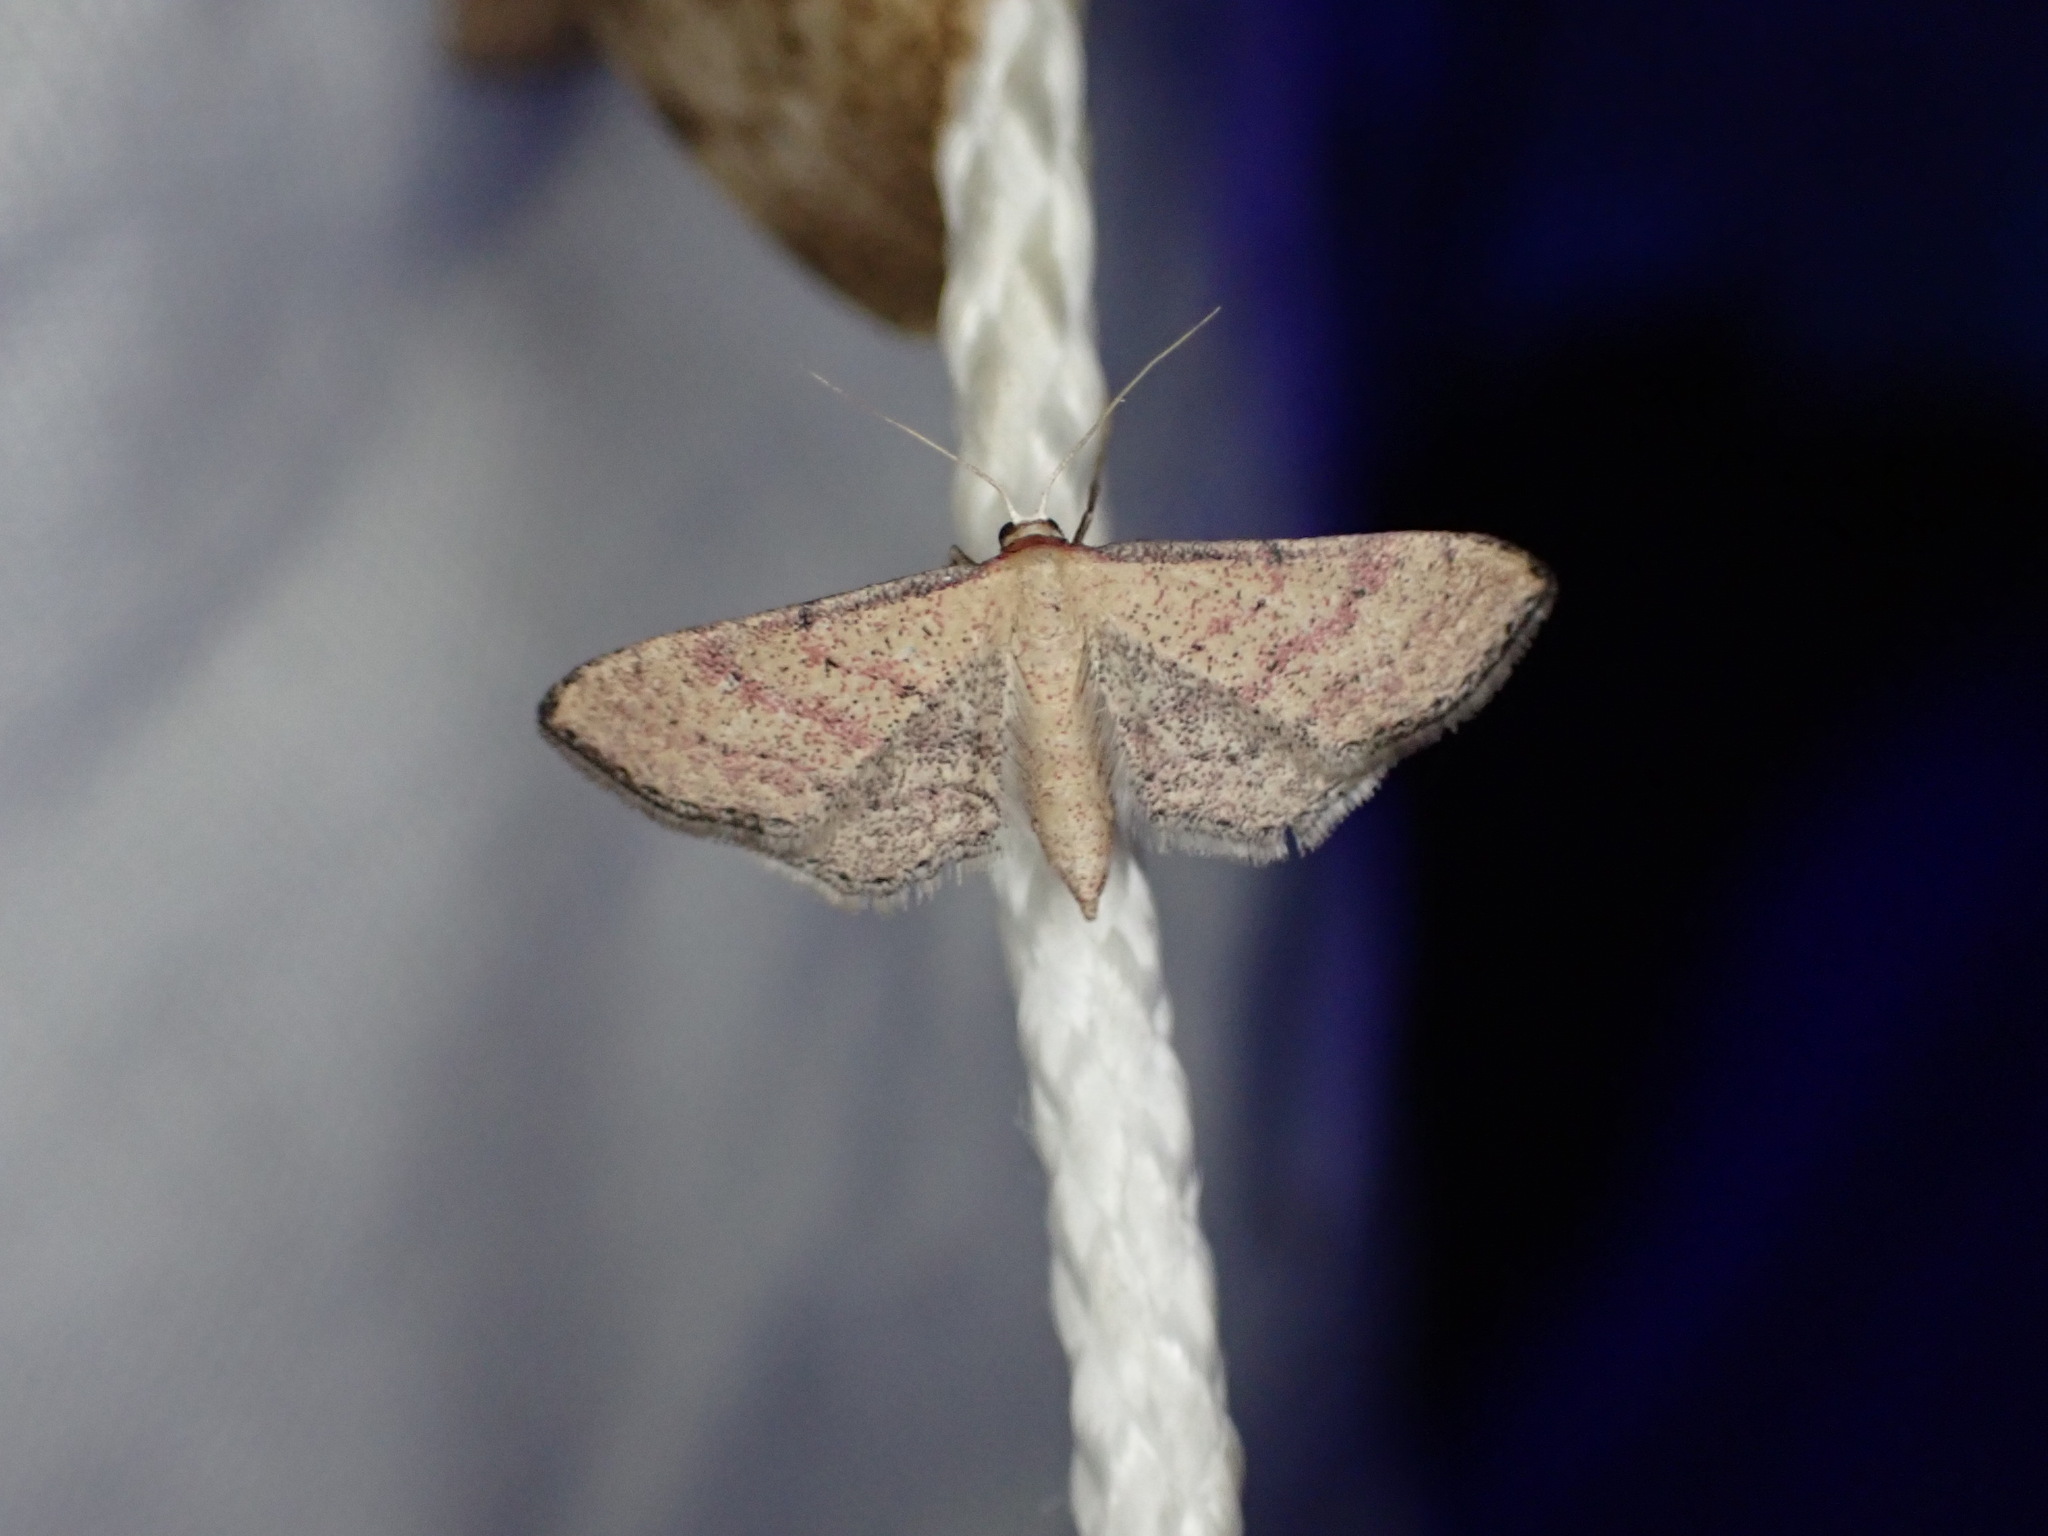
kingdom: Animalia
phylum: Arthropoda
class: Insecta
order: Lepidoptera
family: Geometridae
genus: Idaea
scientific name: Idaea infirmaria
